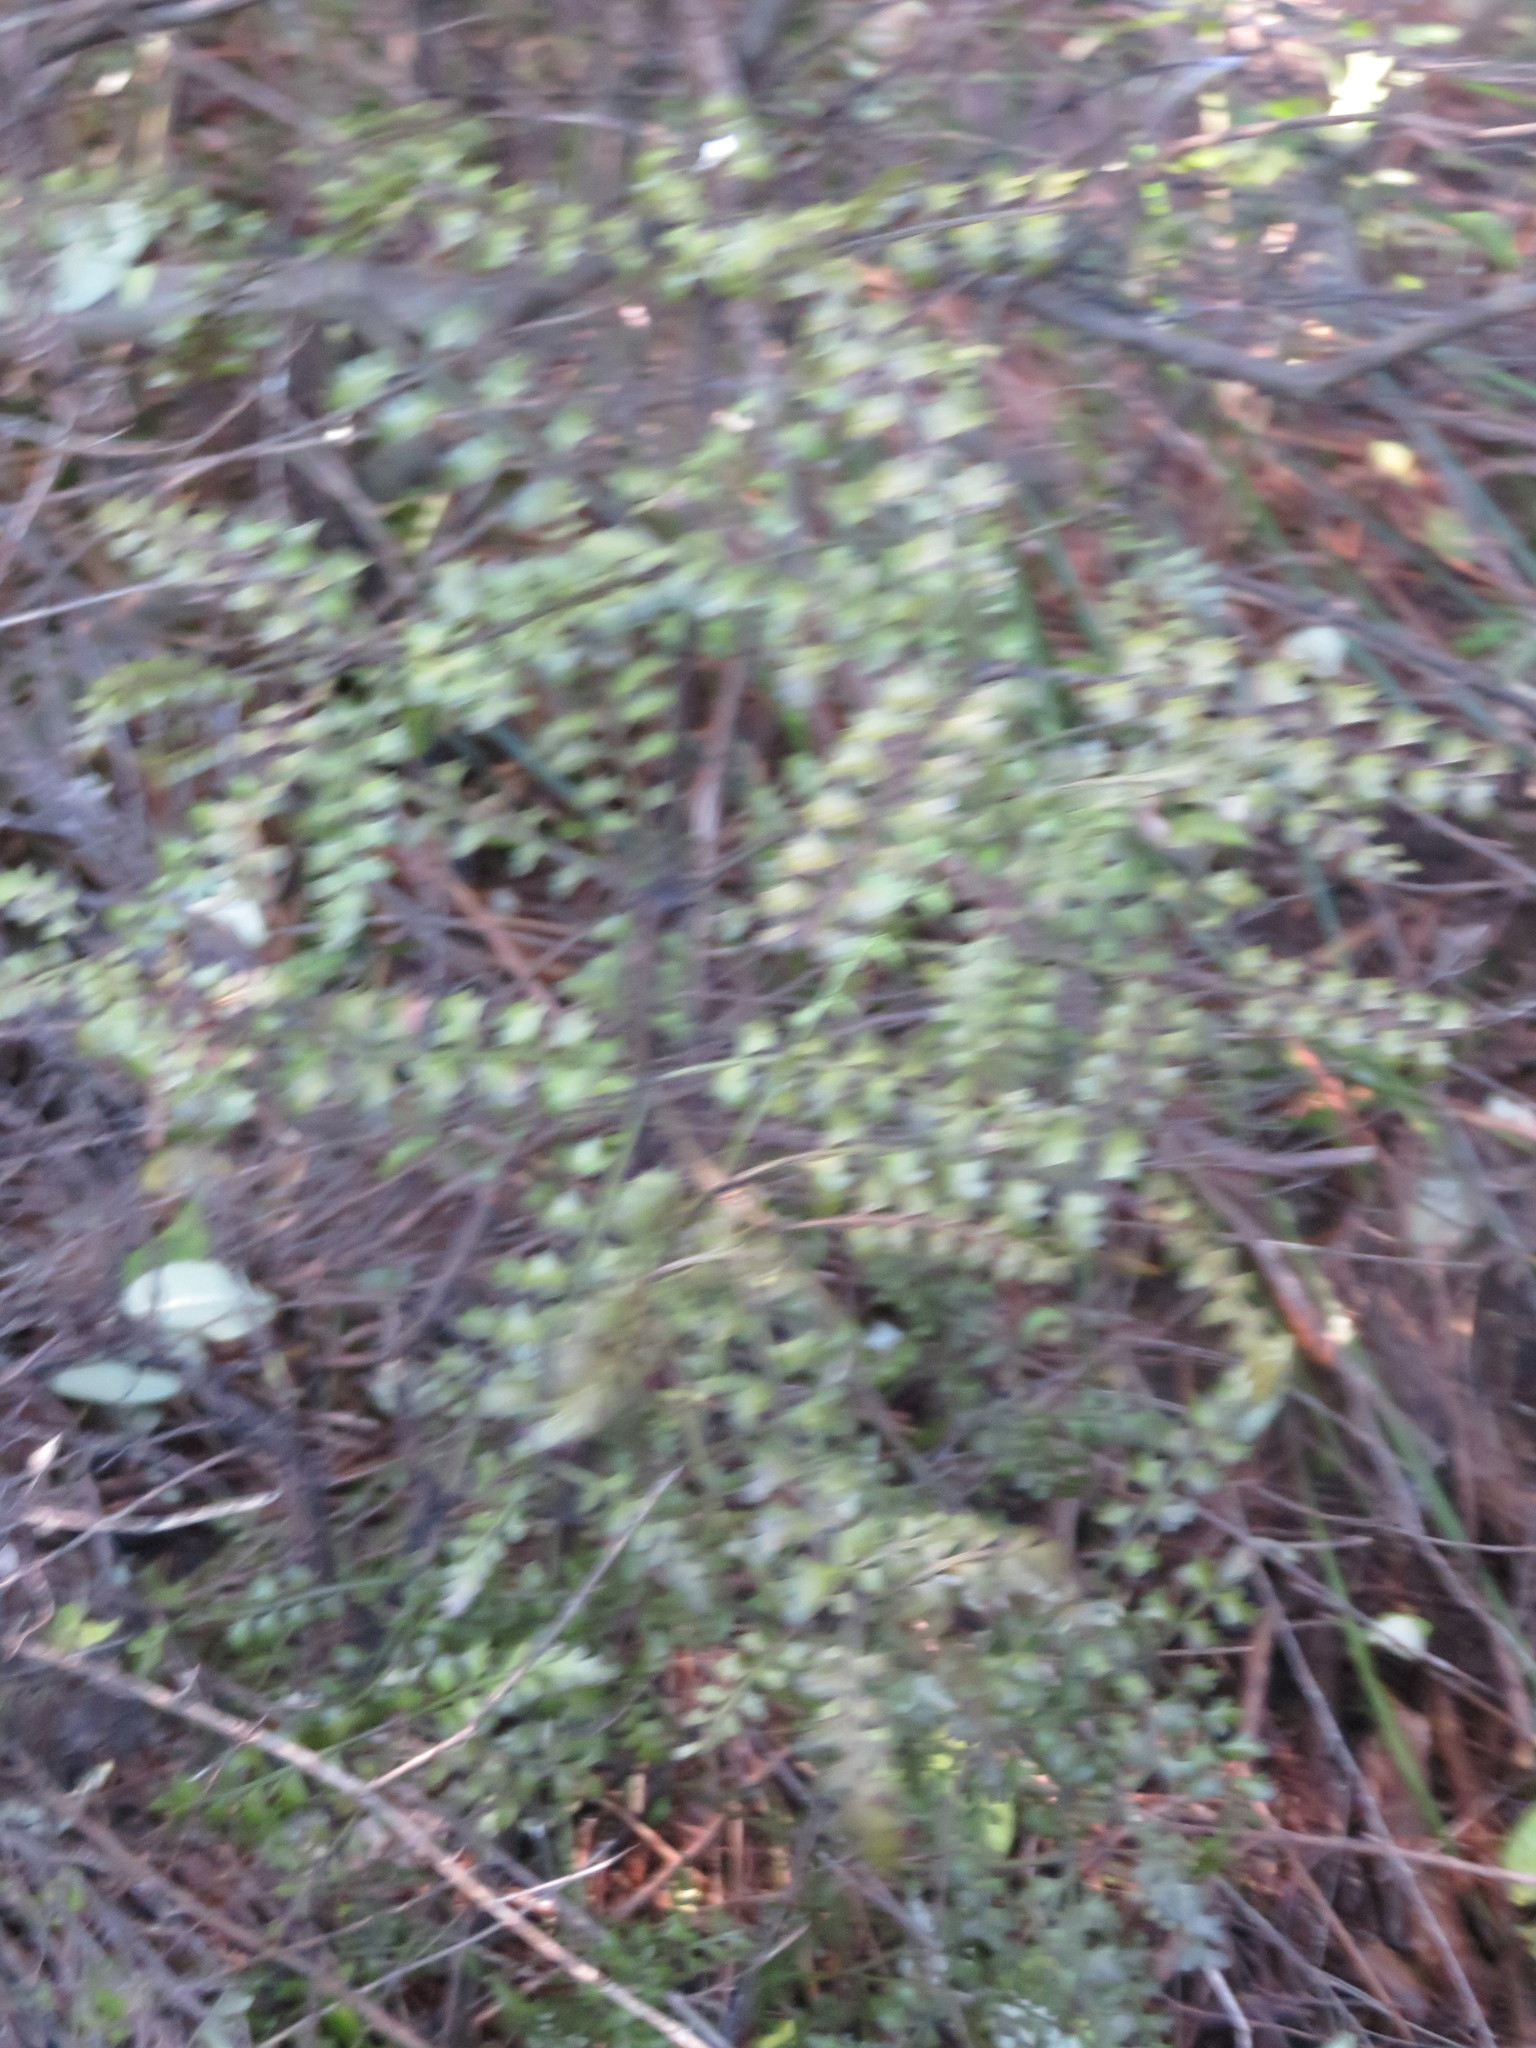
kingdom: Plantae
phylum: Tracheophyta
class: Pinopsida
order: Pinales
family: Phyllocladaceae
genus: Phyllocladus
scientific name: Phyllocladus trichomanoides
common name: Celery pine
